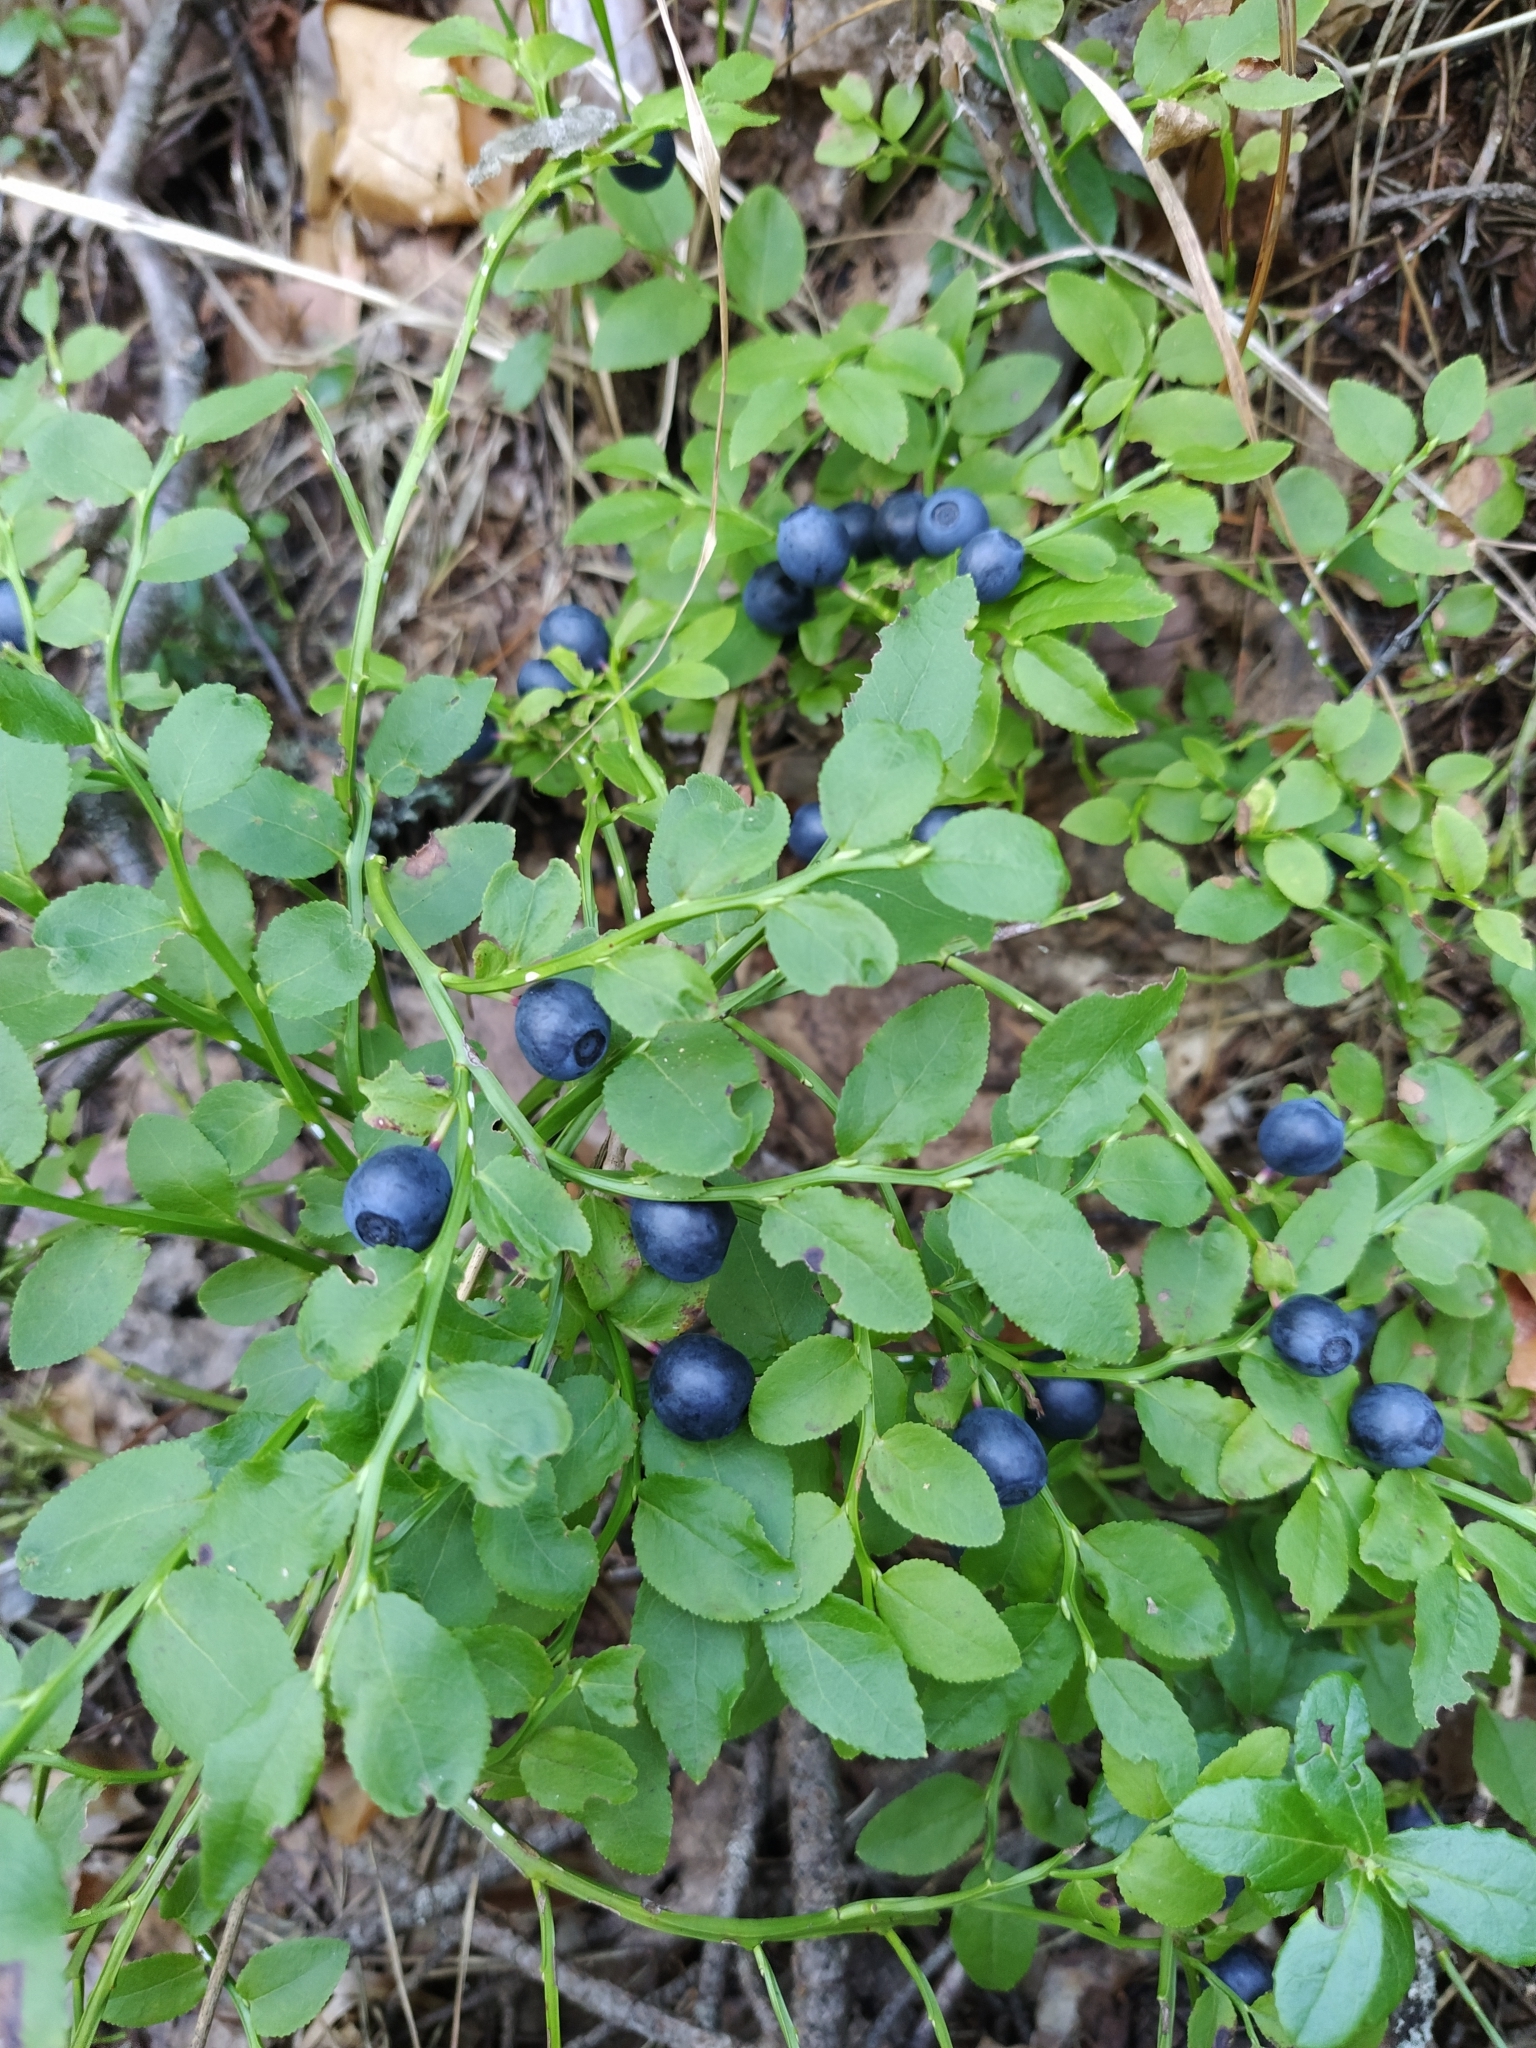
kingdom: Plantae
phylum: Tracheophyta
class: Magnoliopsida
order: Ericales
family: Ericaceae
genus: Vaccinium
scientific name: Vaccinium myrtillus
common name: Bilberry
